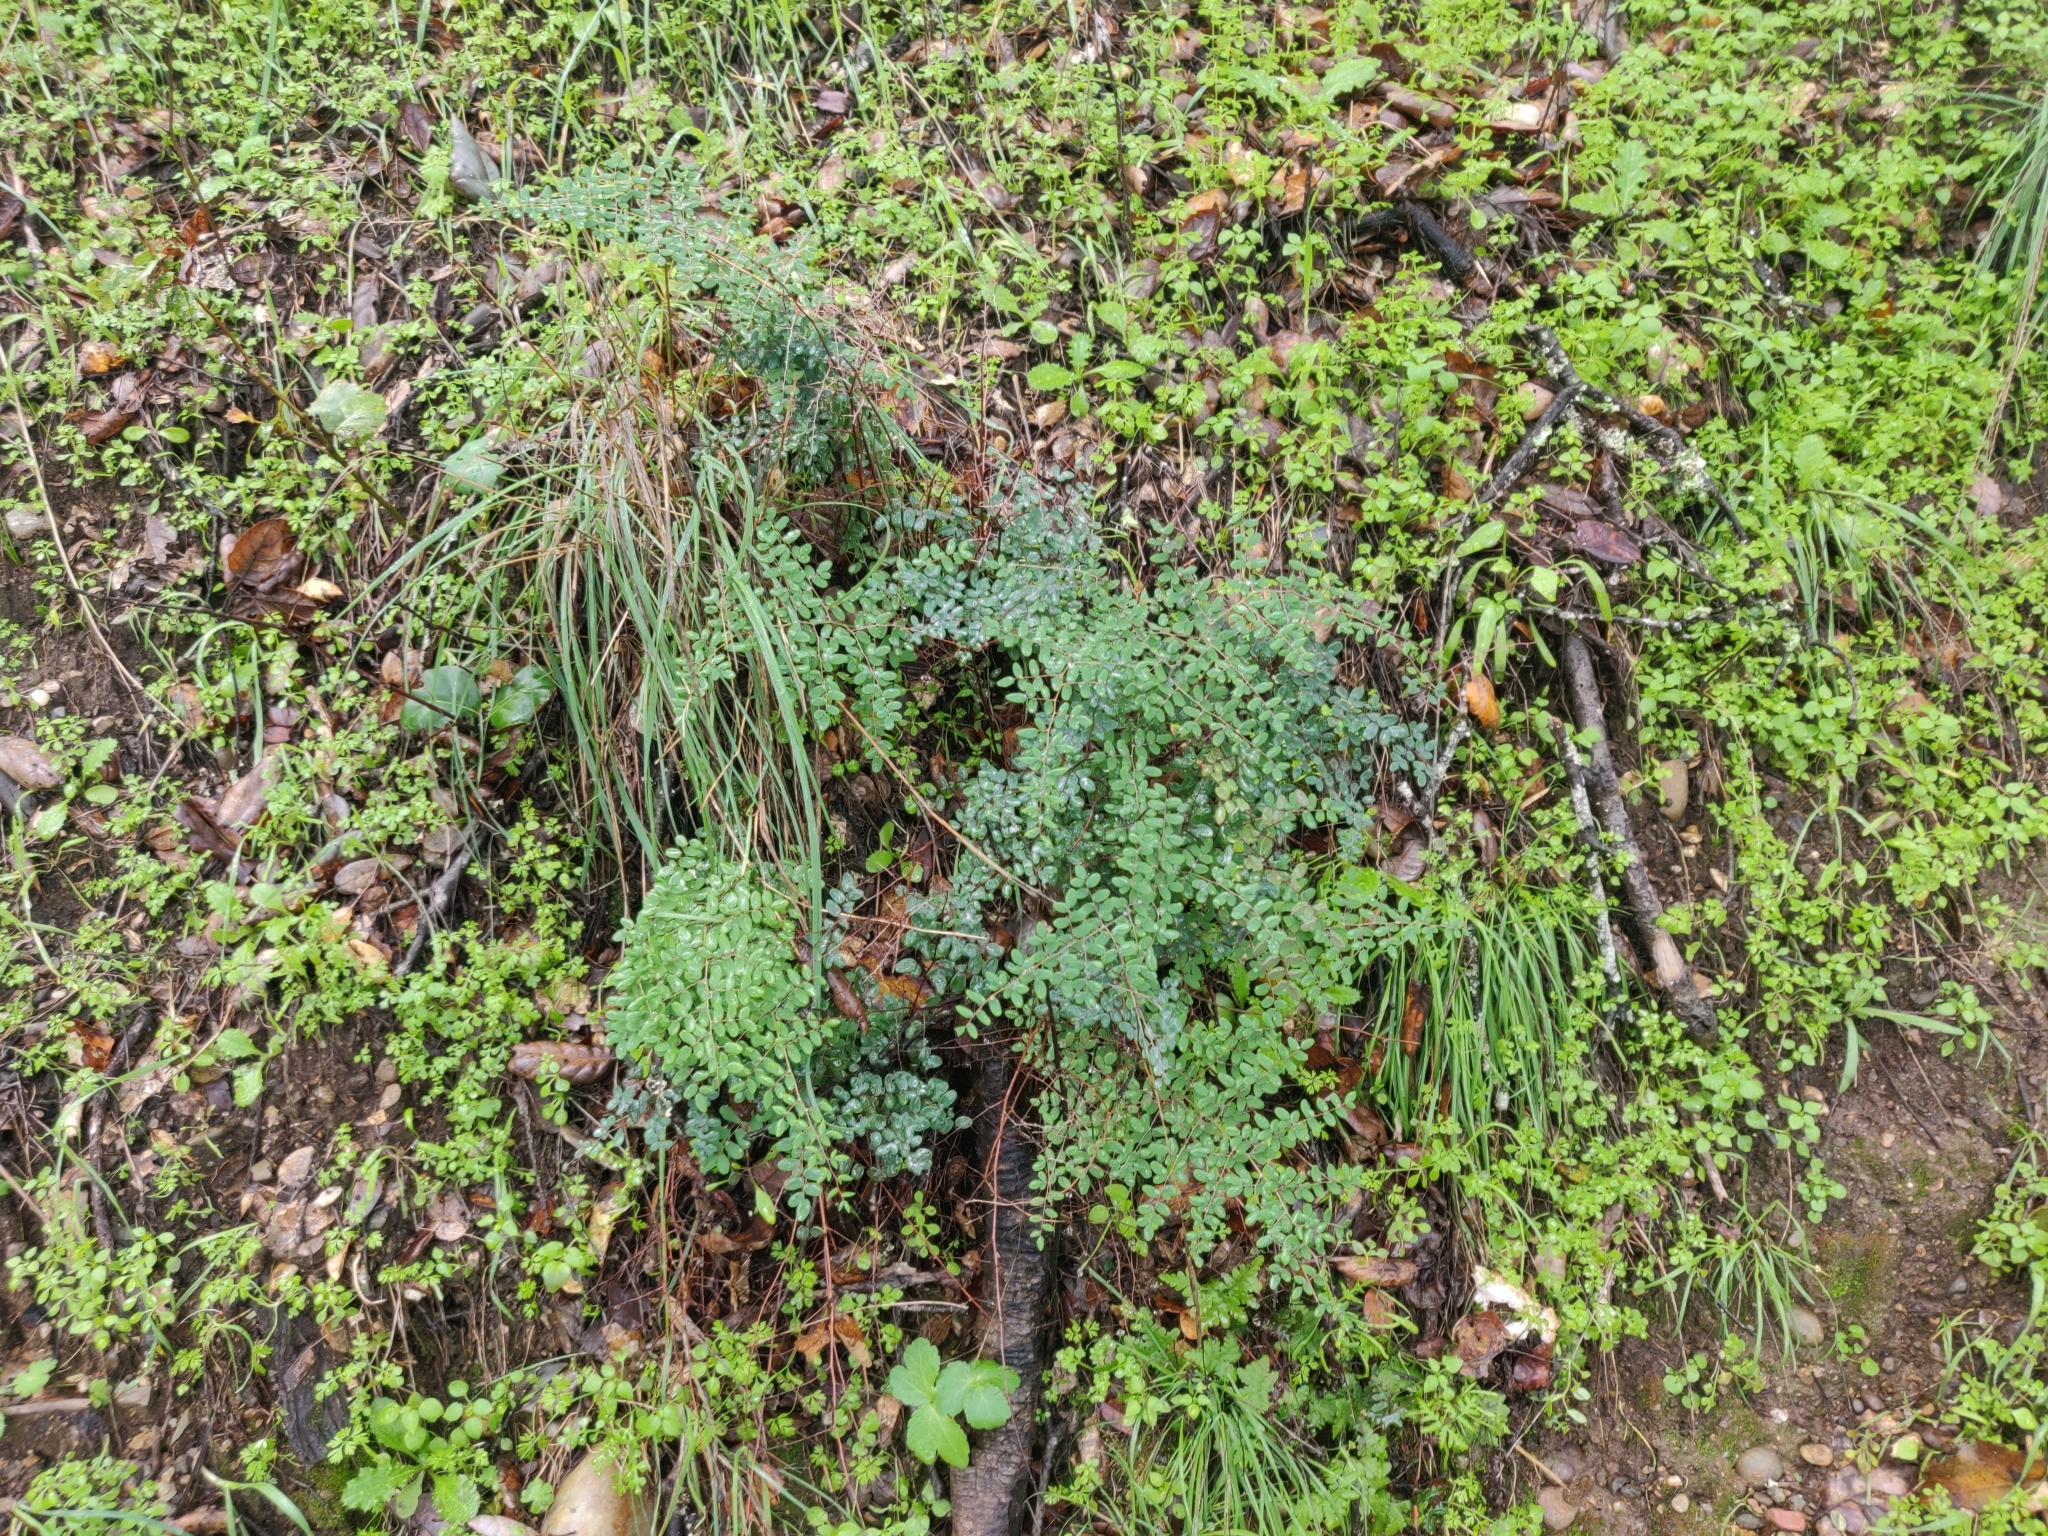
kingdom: Plantae
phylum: Tracheophyta
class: Polypodiopsida
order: Polypodiales
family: Pteridaceae
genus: Pellaea
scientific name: Pellaea andromedifolia
